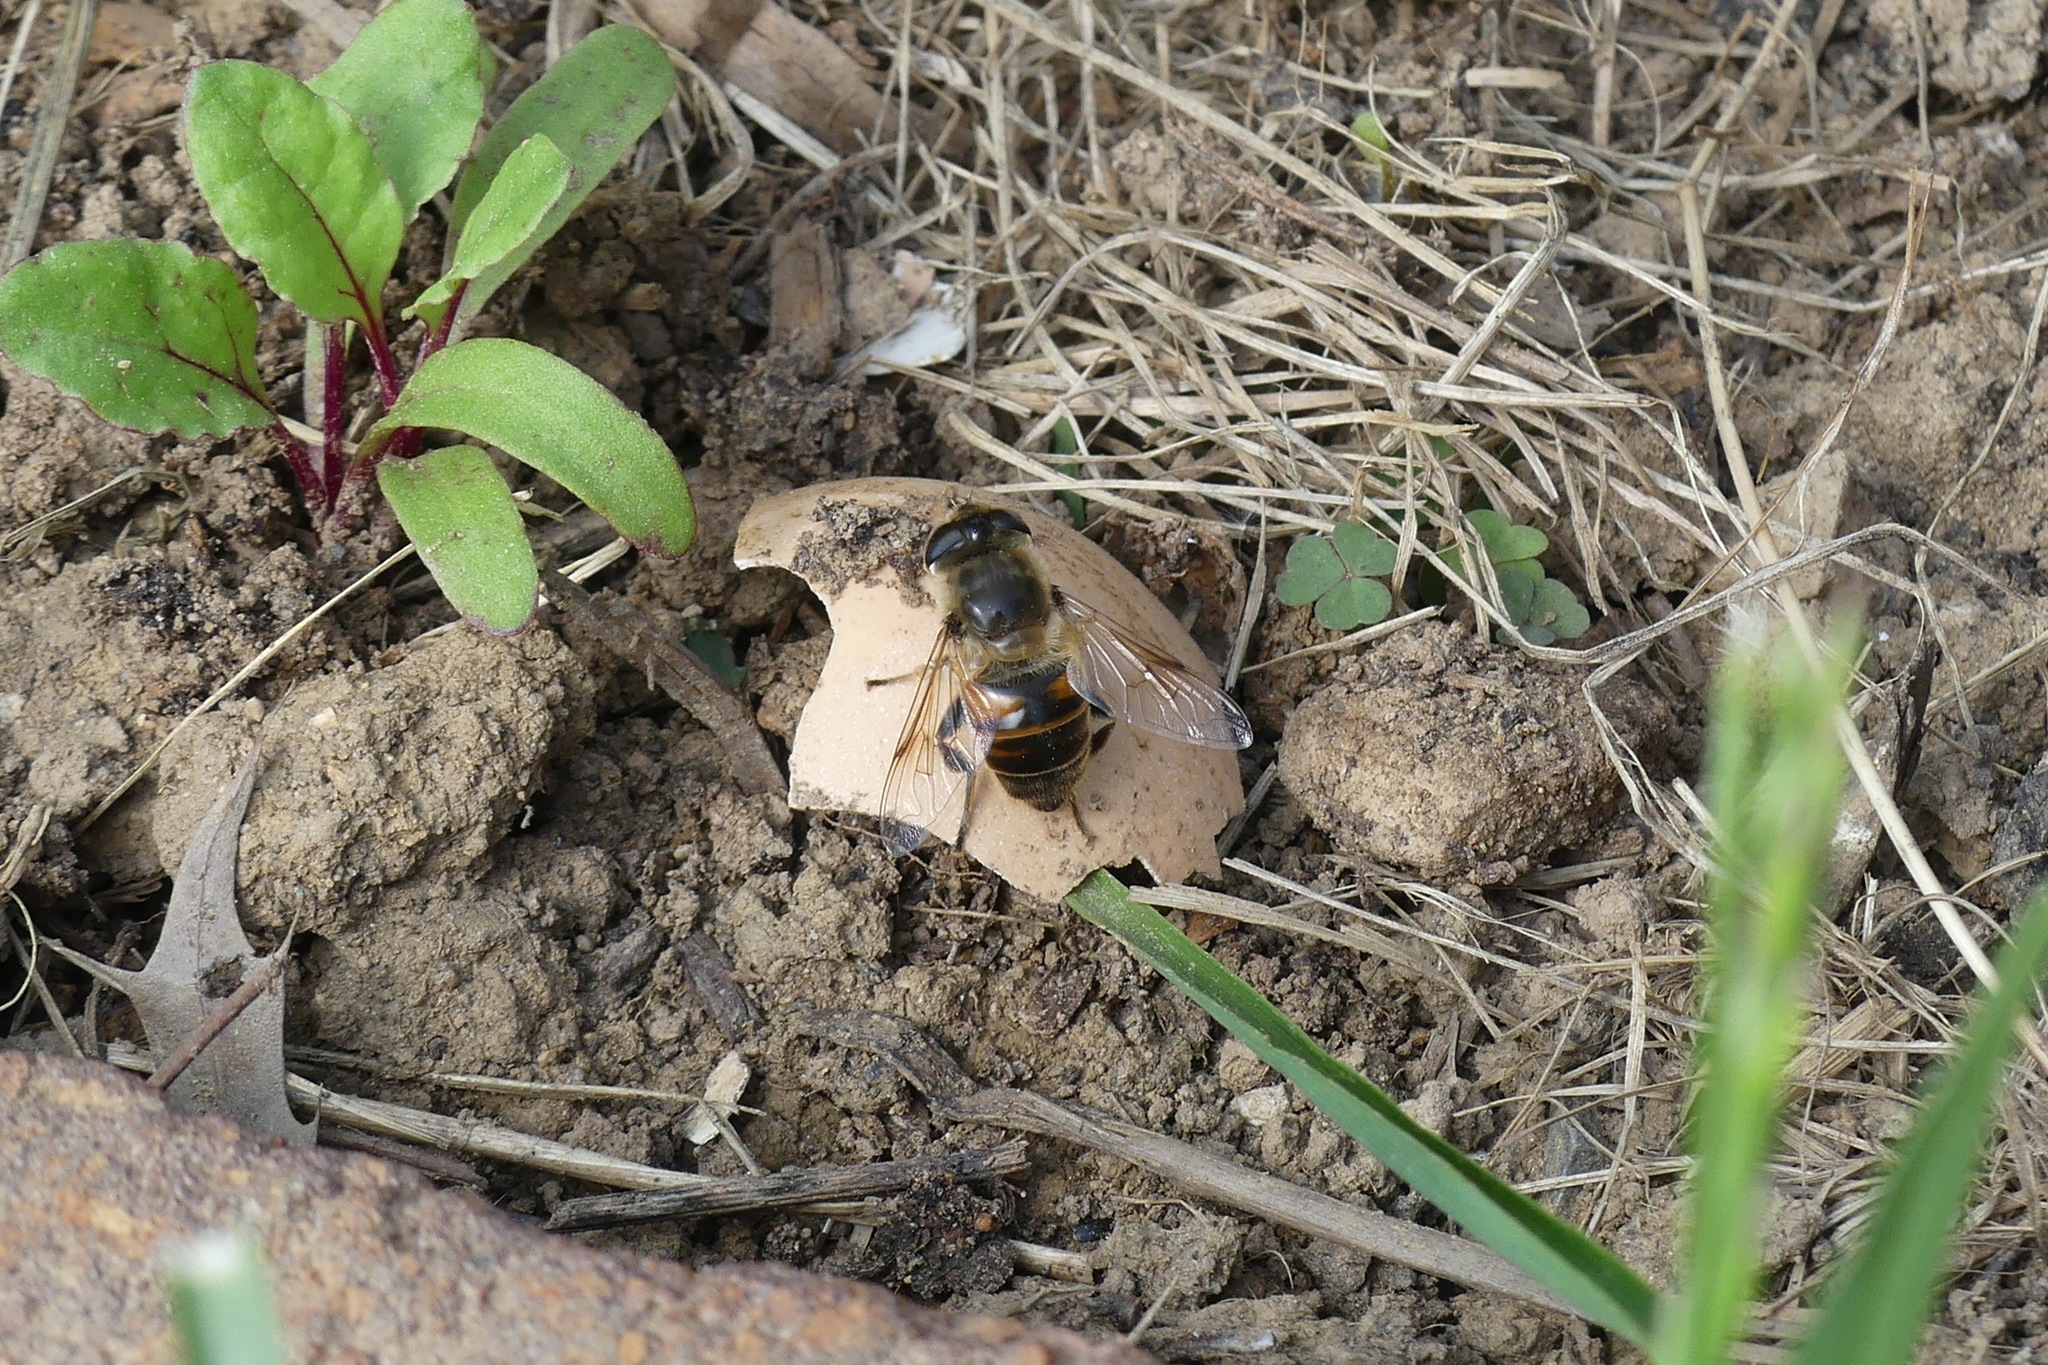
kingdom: Animalia
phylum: Arthropoda
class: Insecta
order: Diptera
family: Syrphidae
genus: Eristalis
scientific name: Eristalis tenax
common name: Drone fly
